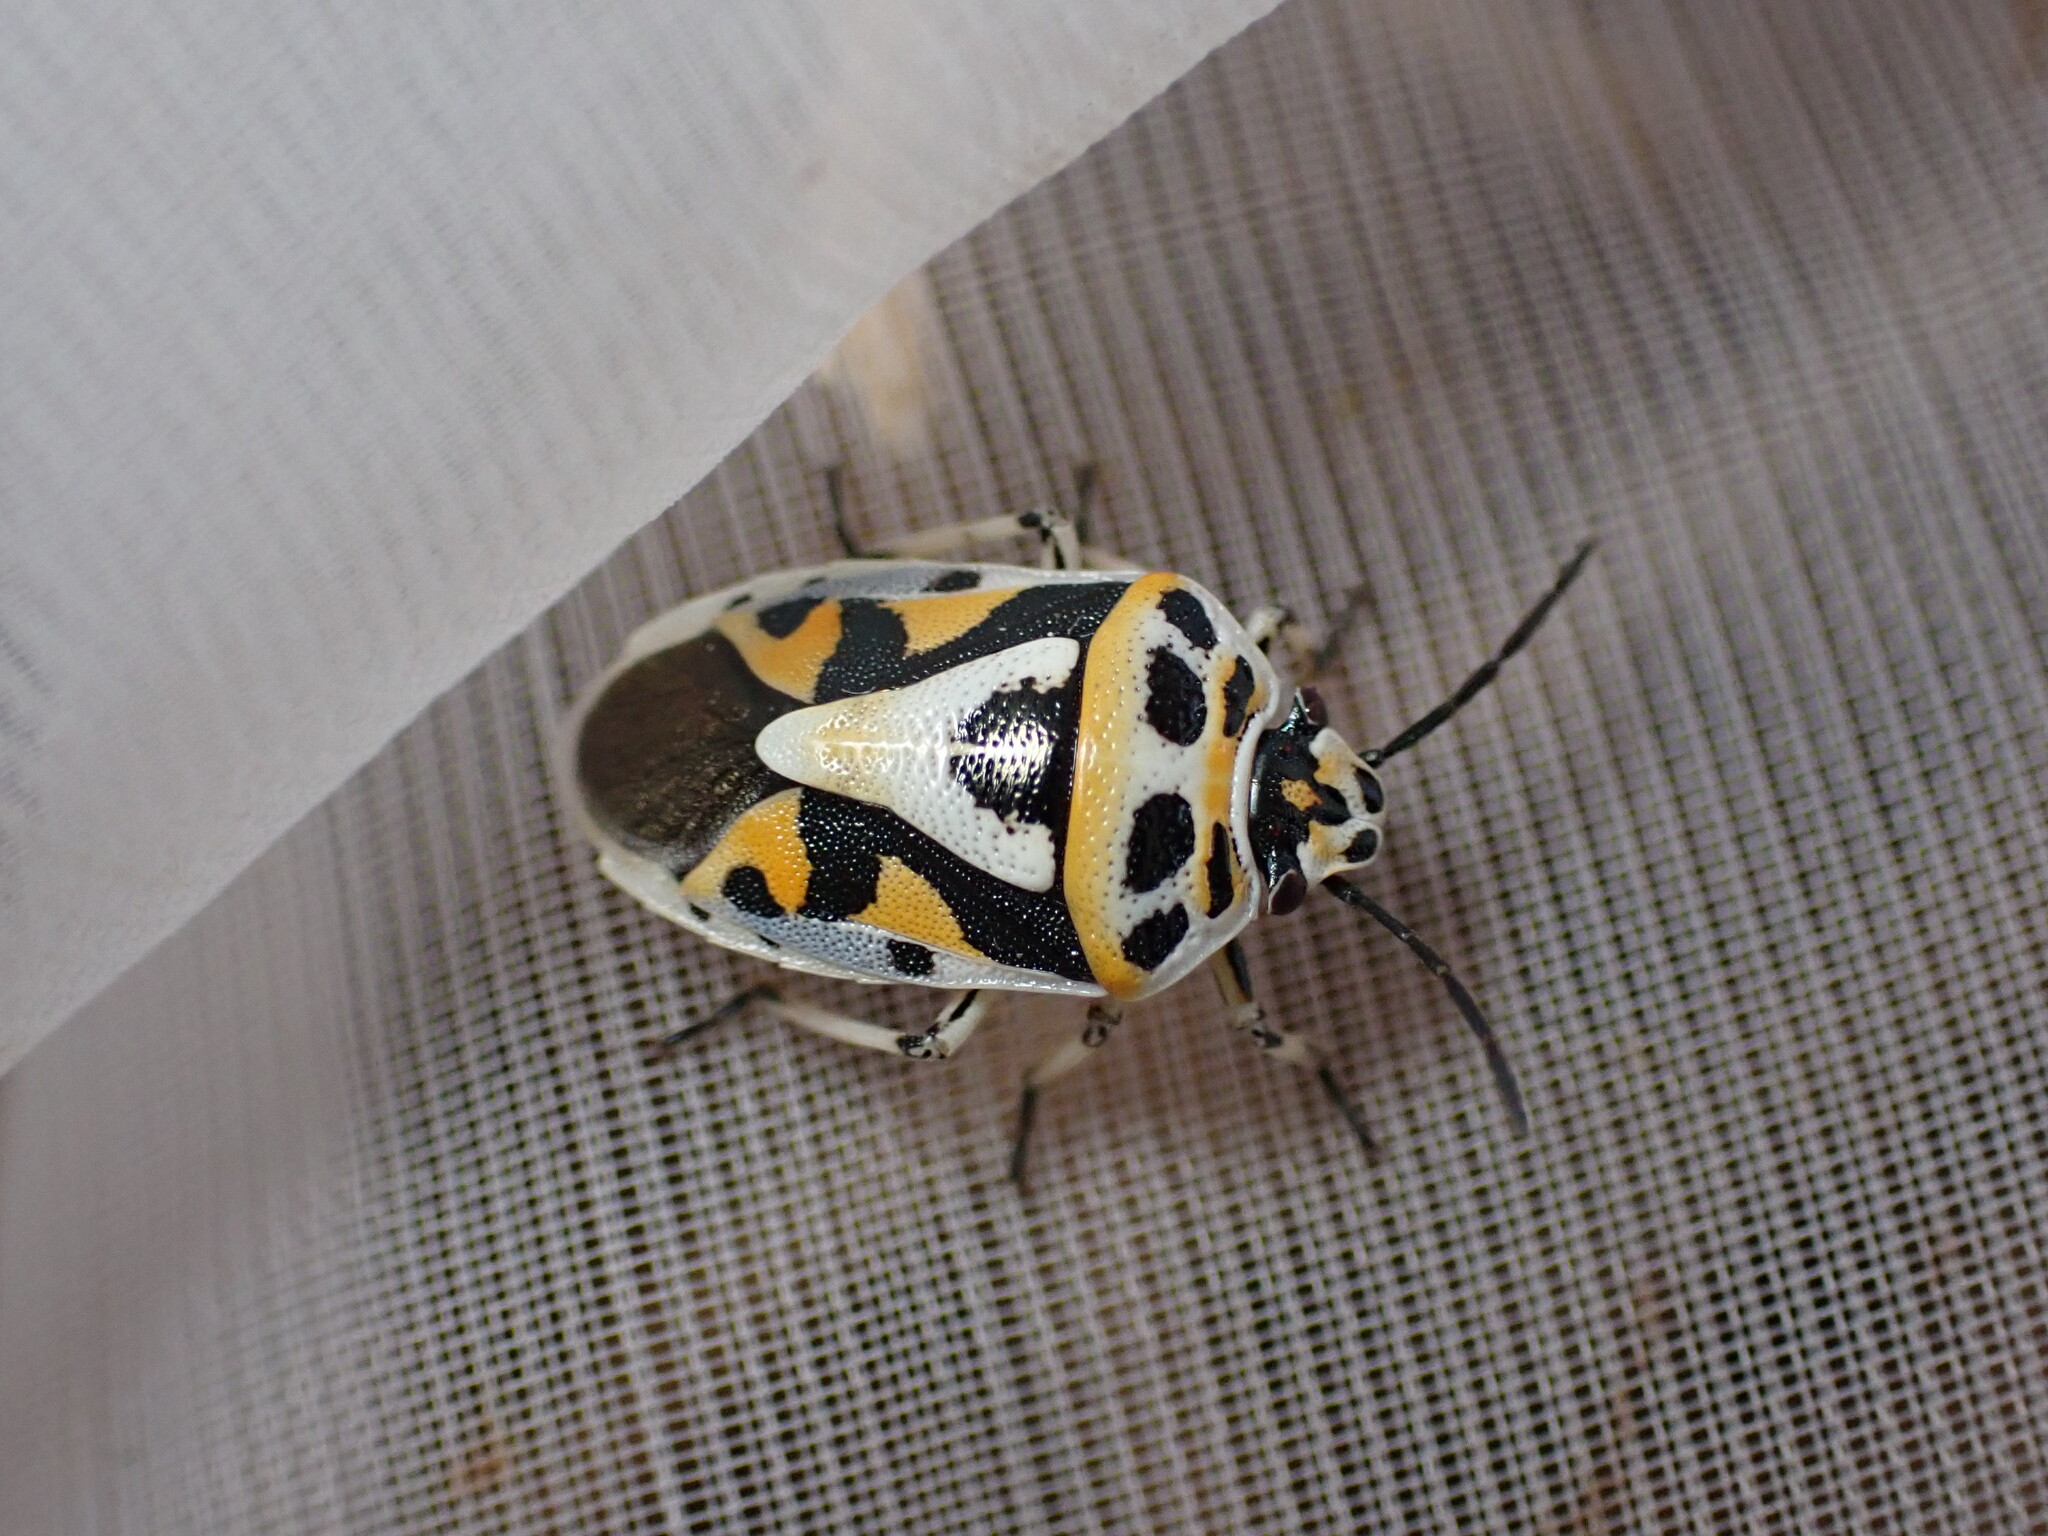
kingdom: Animalia
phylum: Arthropoda
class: Insecta
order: Hemiptera
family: Pentatomidae
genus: Eurydema
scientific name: Eurydema ornata
